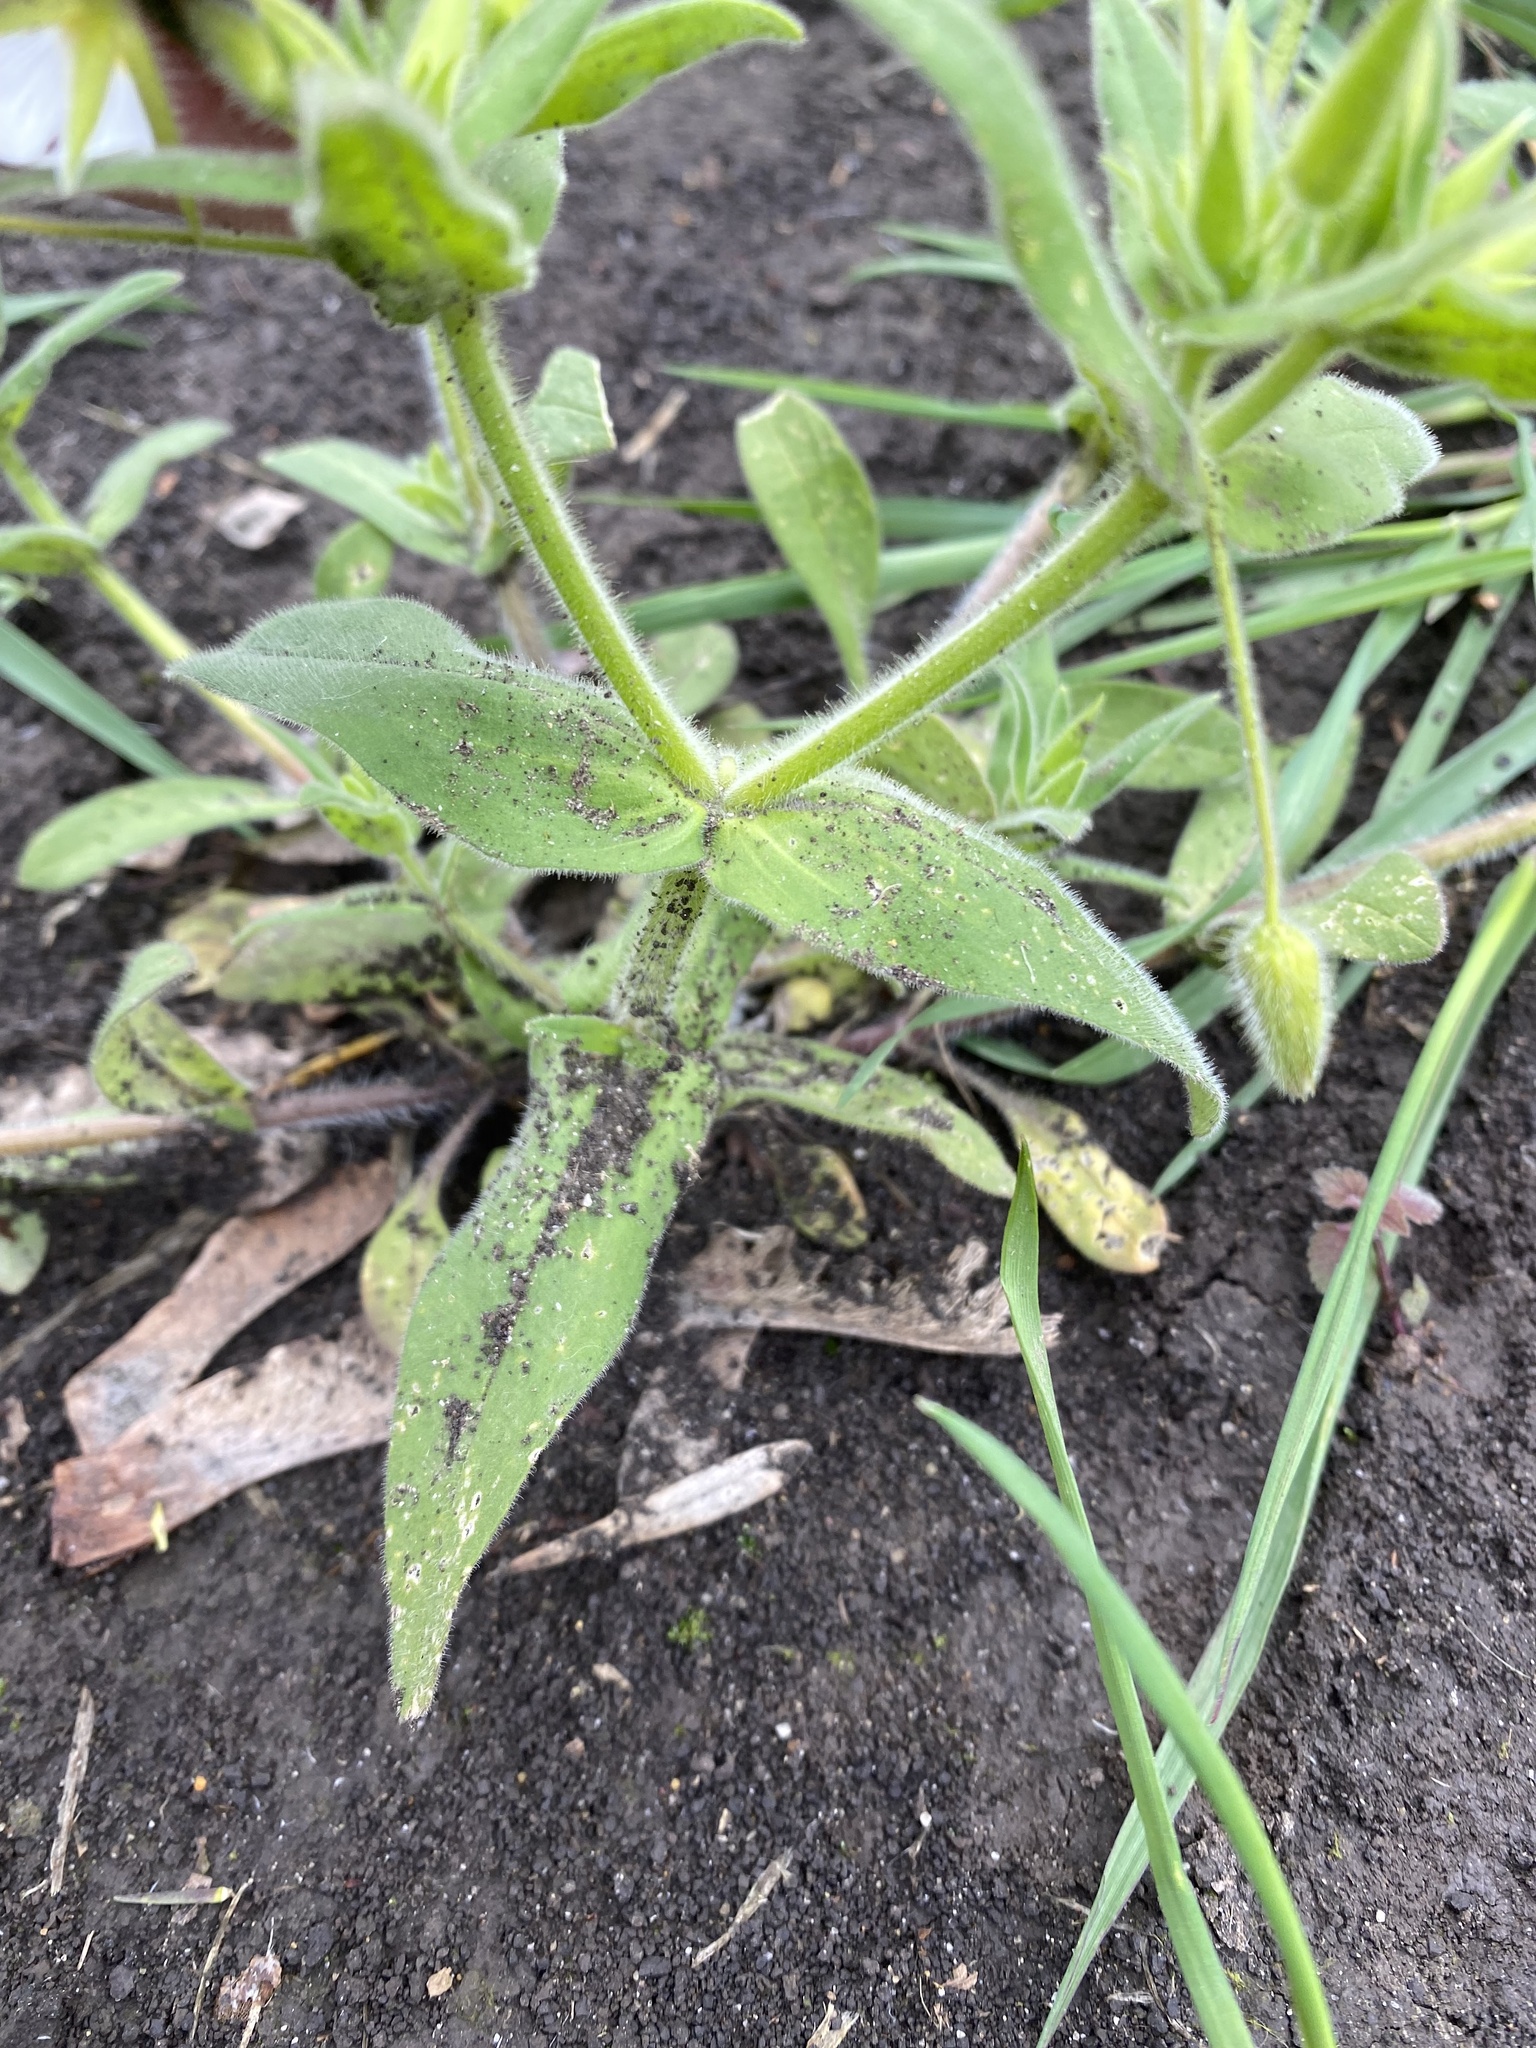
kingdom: Plantae
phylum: Tracheophyta
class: Magnoliopsida
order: Caryophyllales
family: Caryophyllaceae
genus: Cerastium
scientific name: Cerastium nemorale
